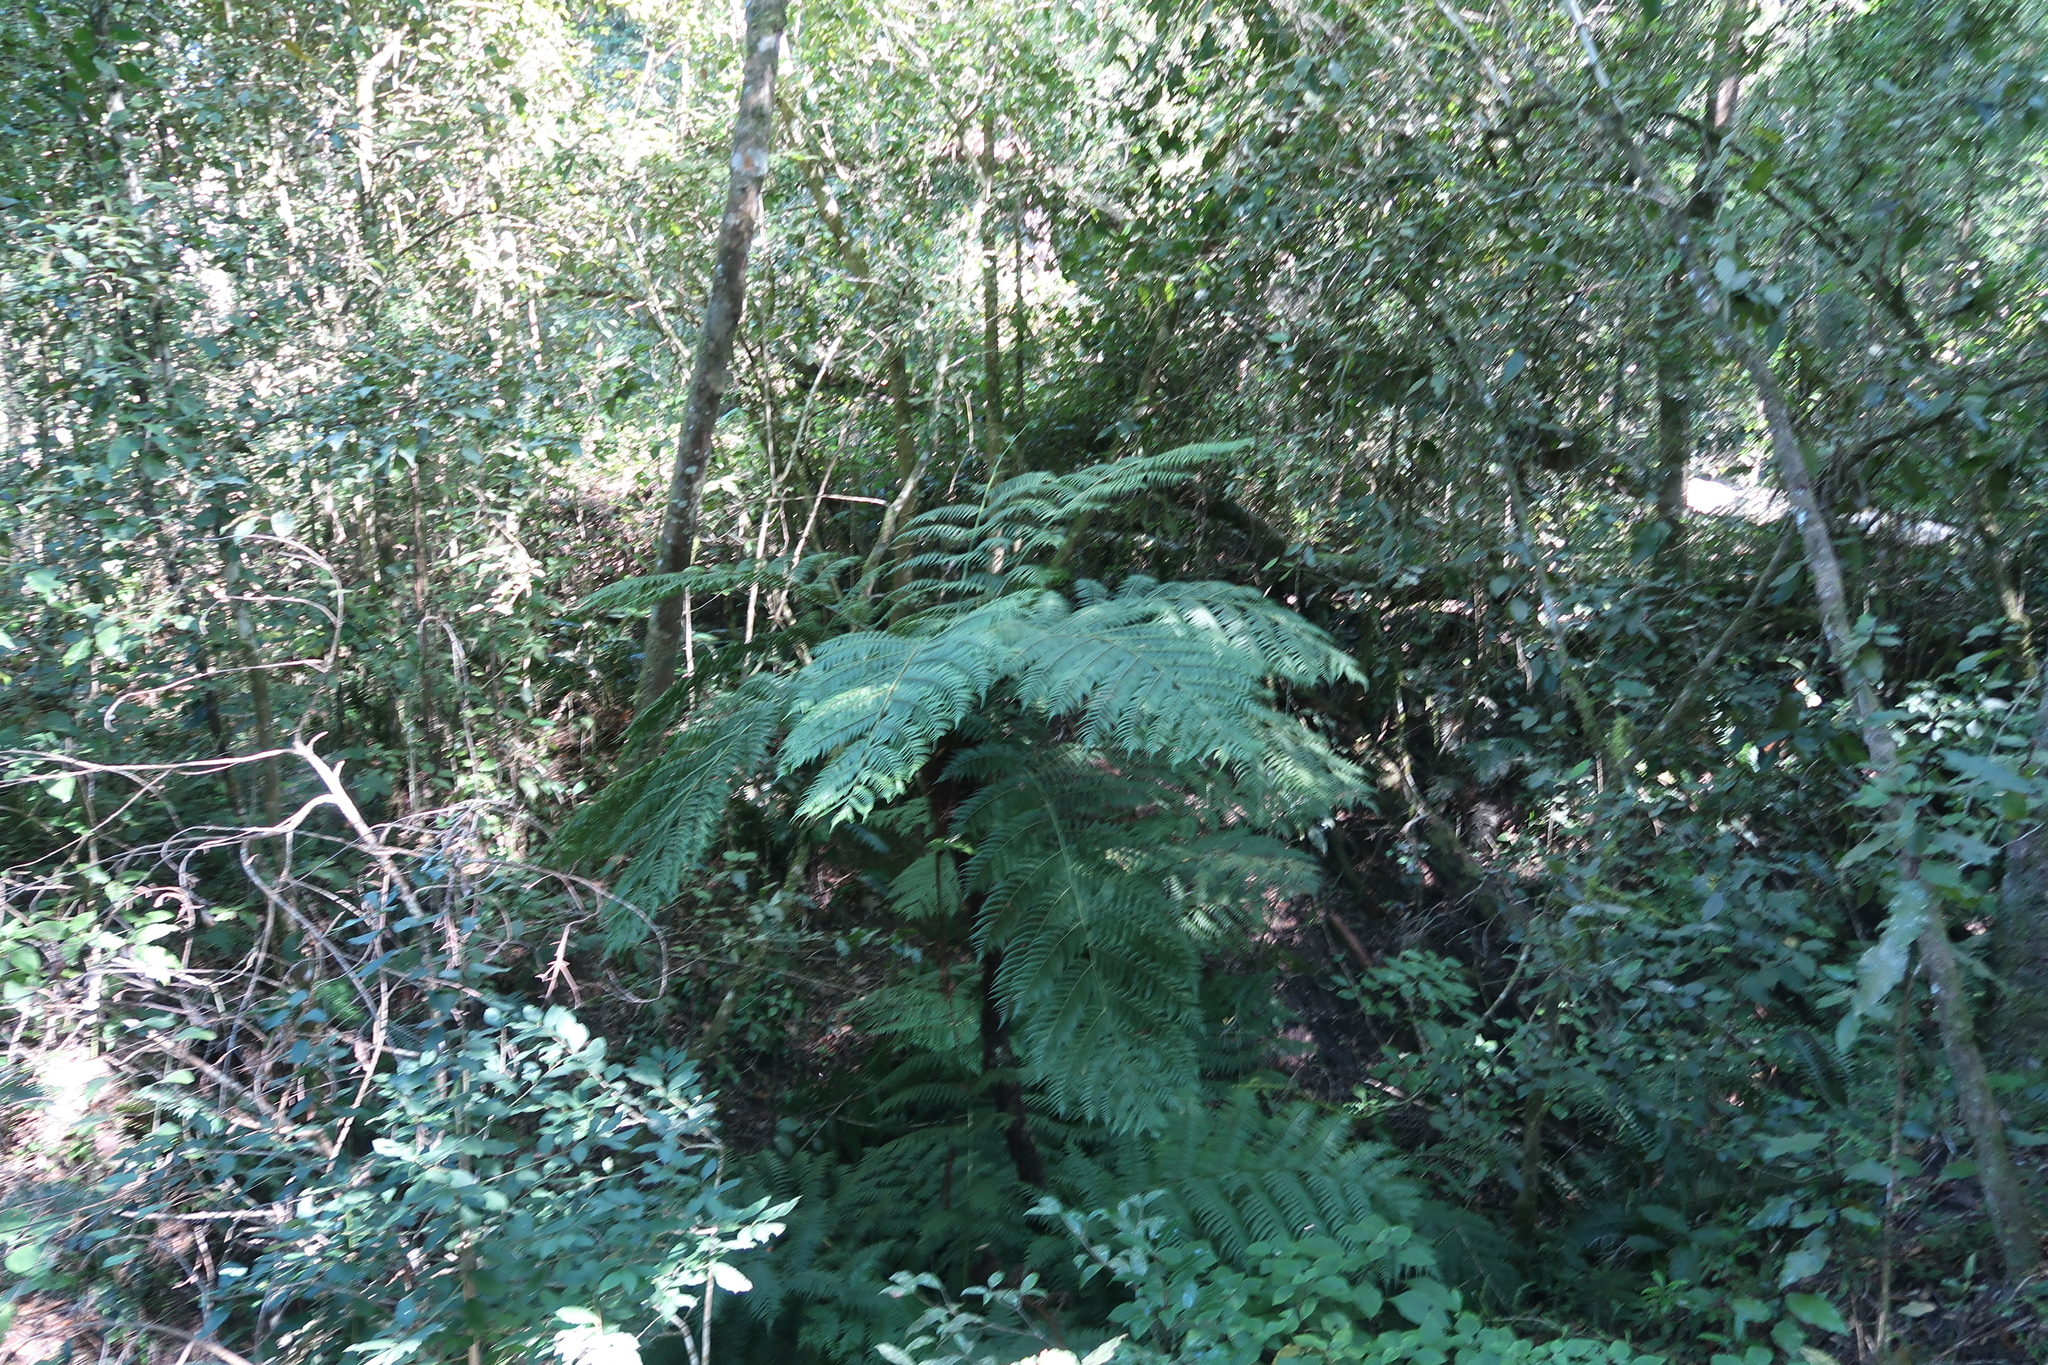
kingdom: Plantae
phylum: Tracheophyta
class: Polypodiopsida
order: Cyatheales
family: Cyatheaceae
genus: Gymnosphaera
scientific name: Gymnosphaera capensis
